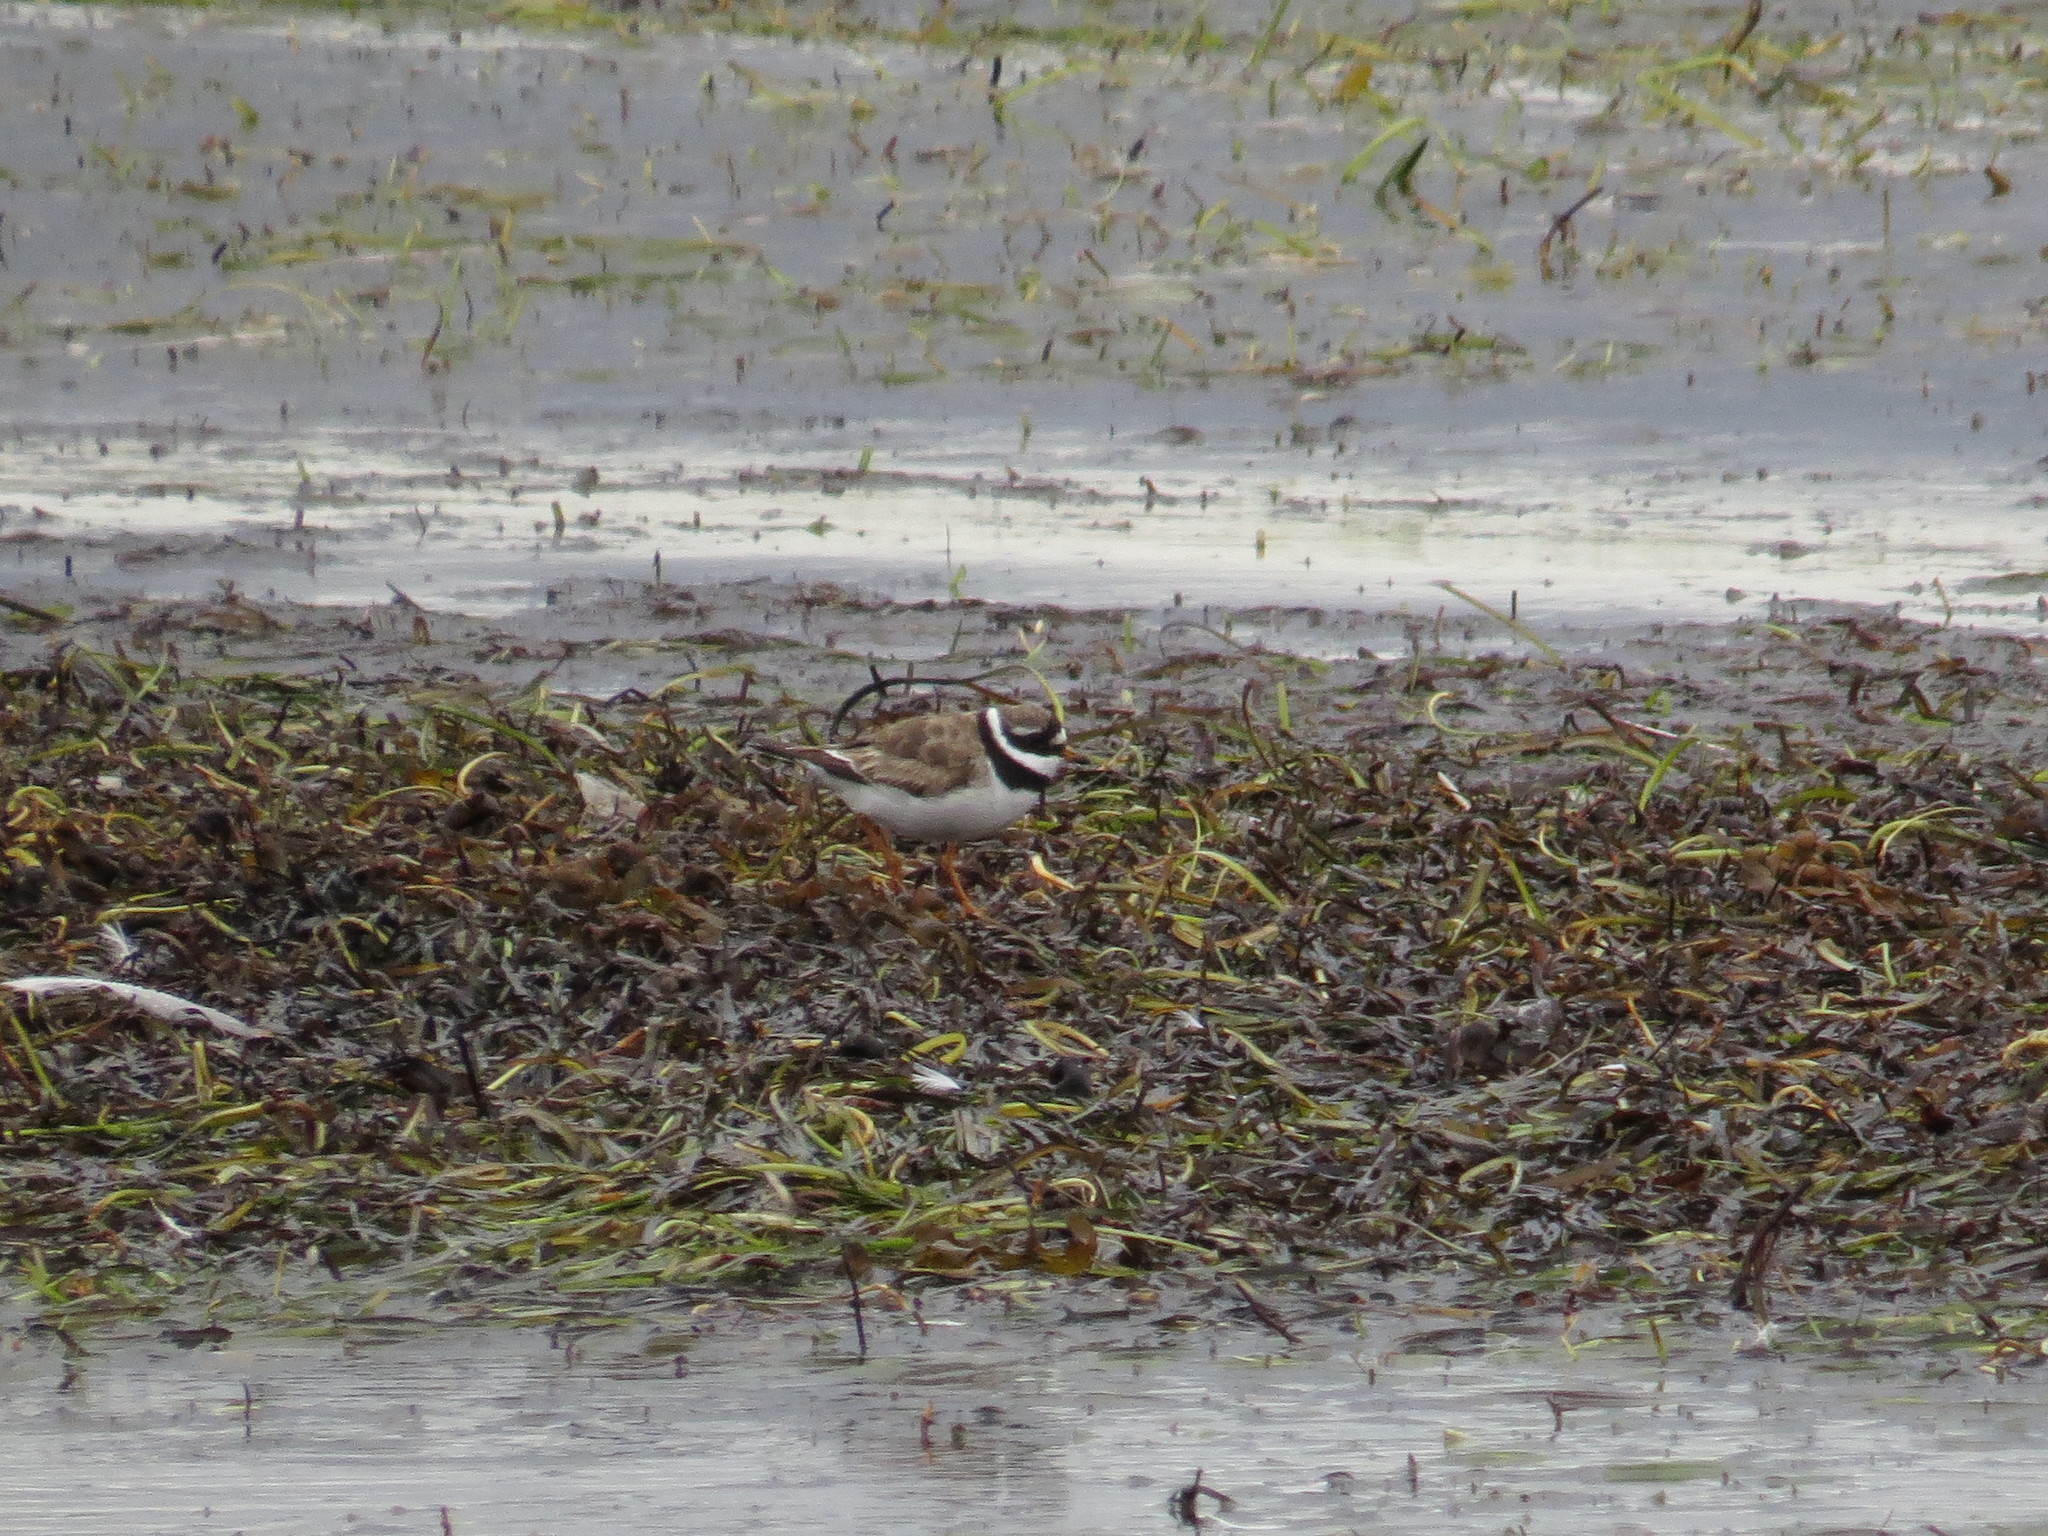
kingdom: Animalia
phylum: Chordata
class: Aves
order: Charadriiformes
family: Charadriidae
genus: Charadrius
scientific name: Charadrius hiaticula
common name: Common ringed plover
